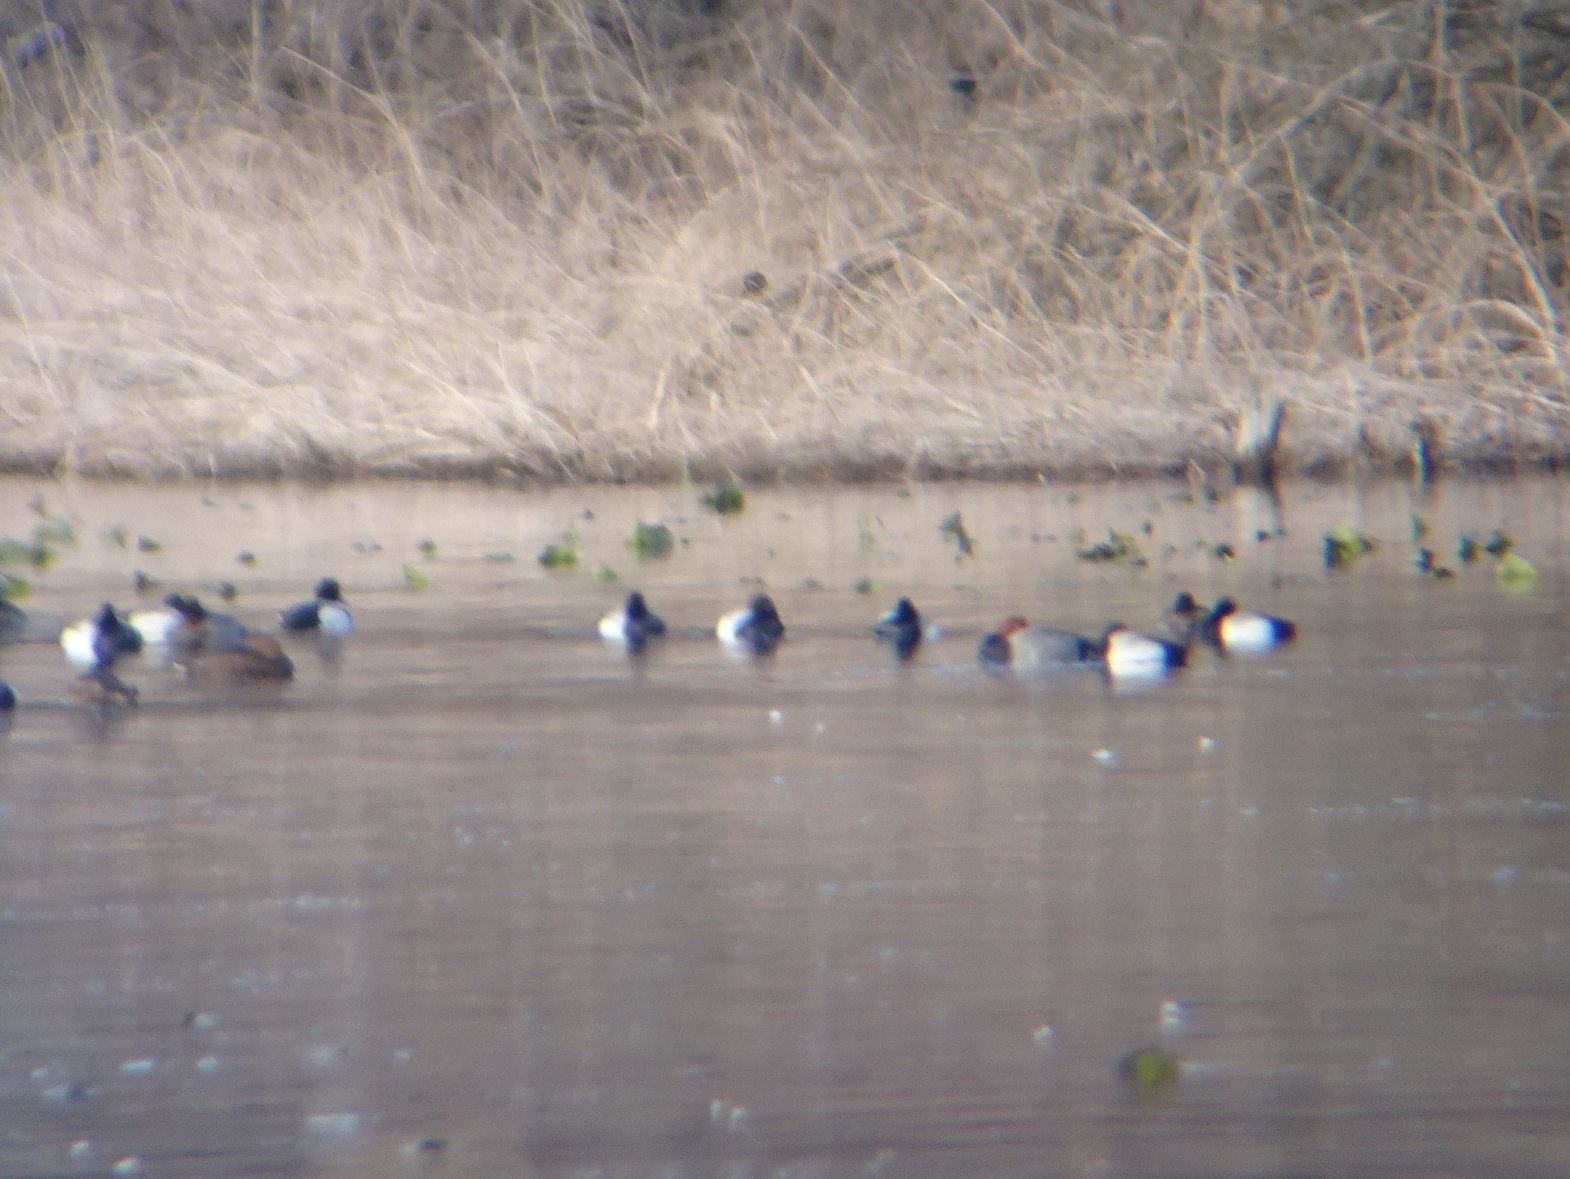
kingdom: Animalia
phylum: Chordata
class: Aves
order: Anseriformes
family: Anatidae
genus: Aythya
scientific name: Aythya americana
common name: Redhead
